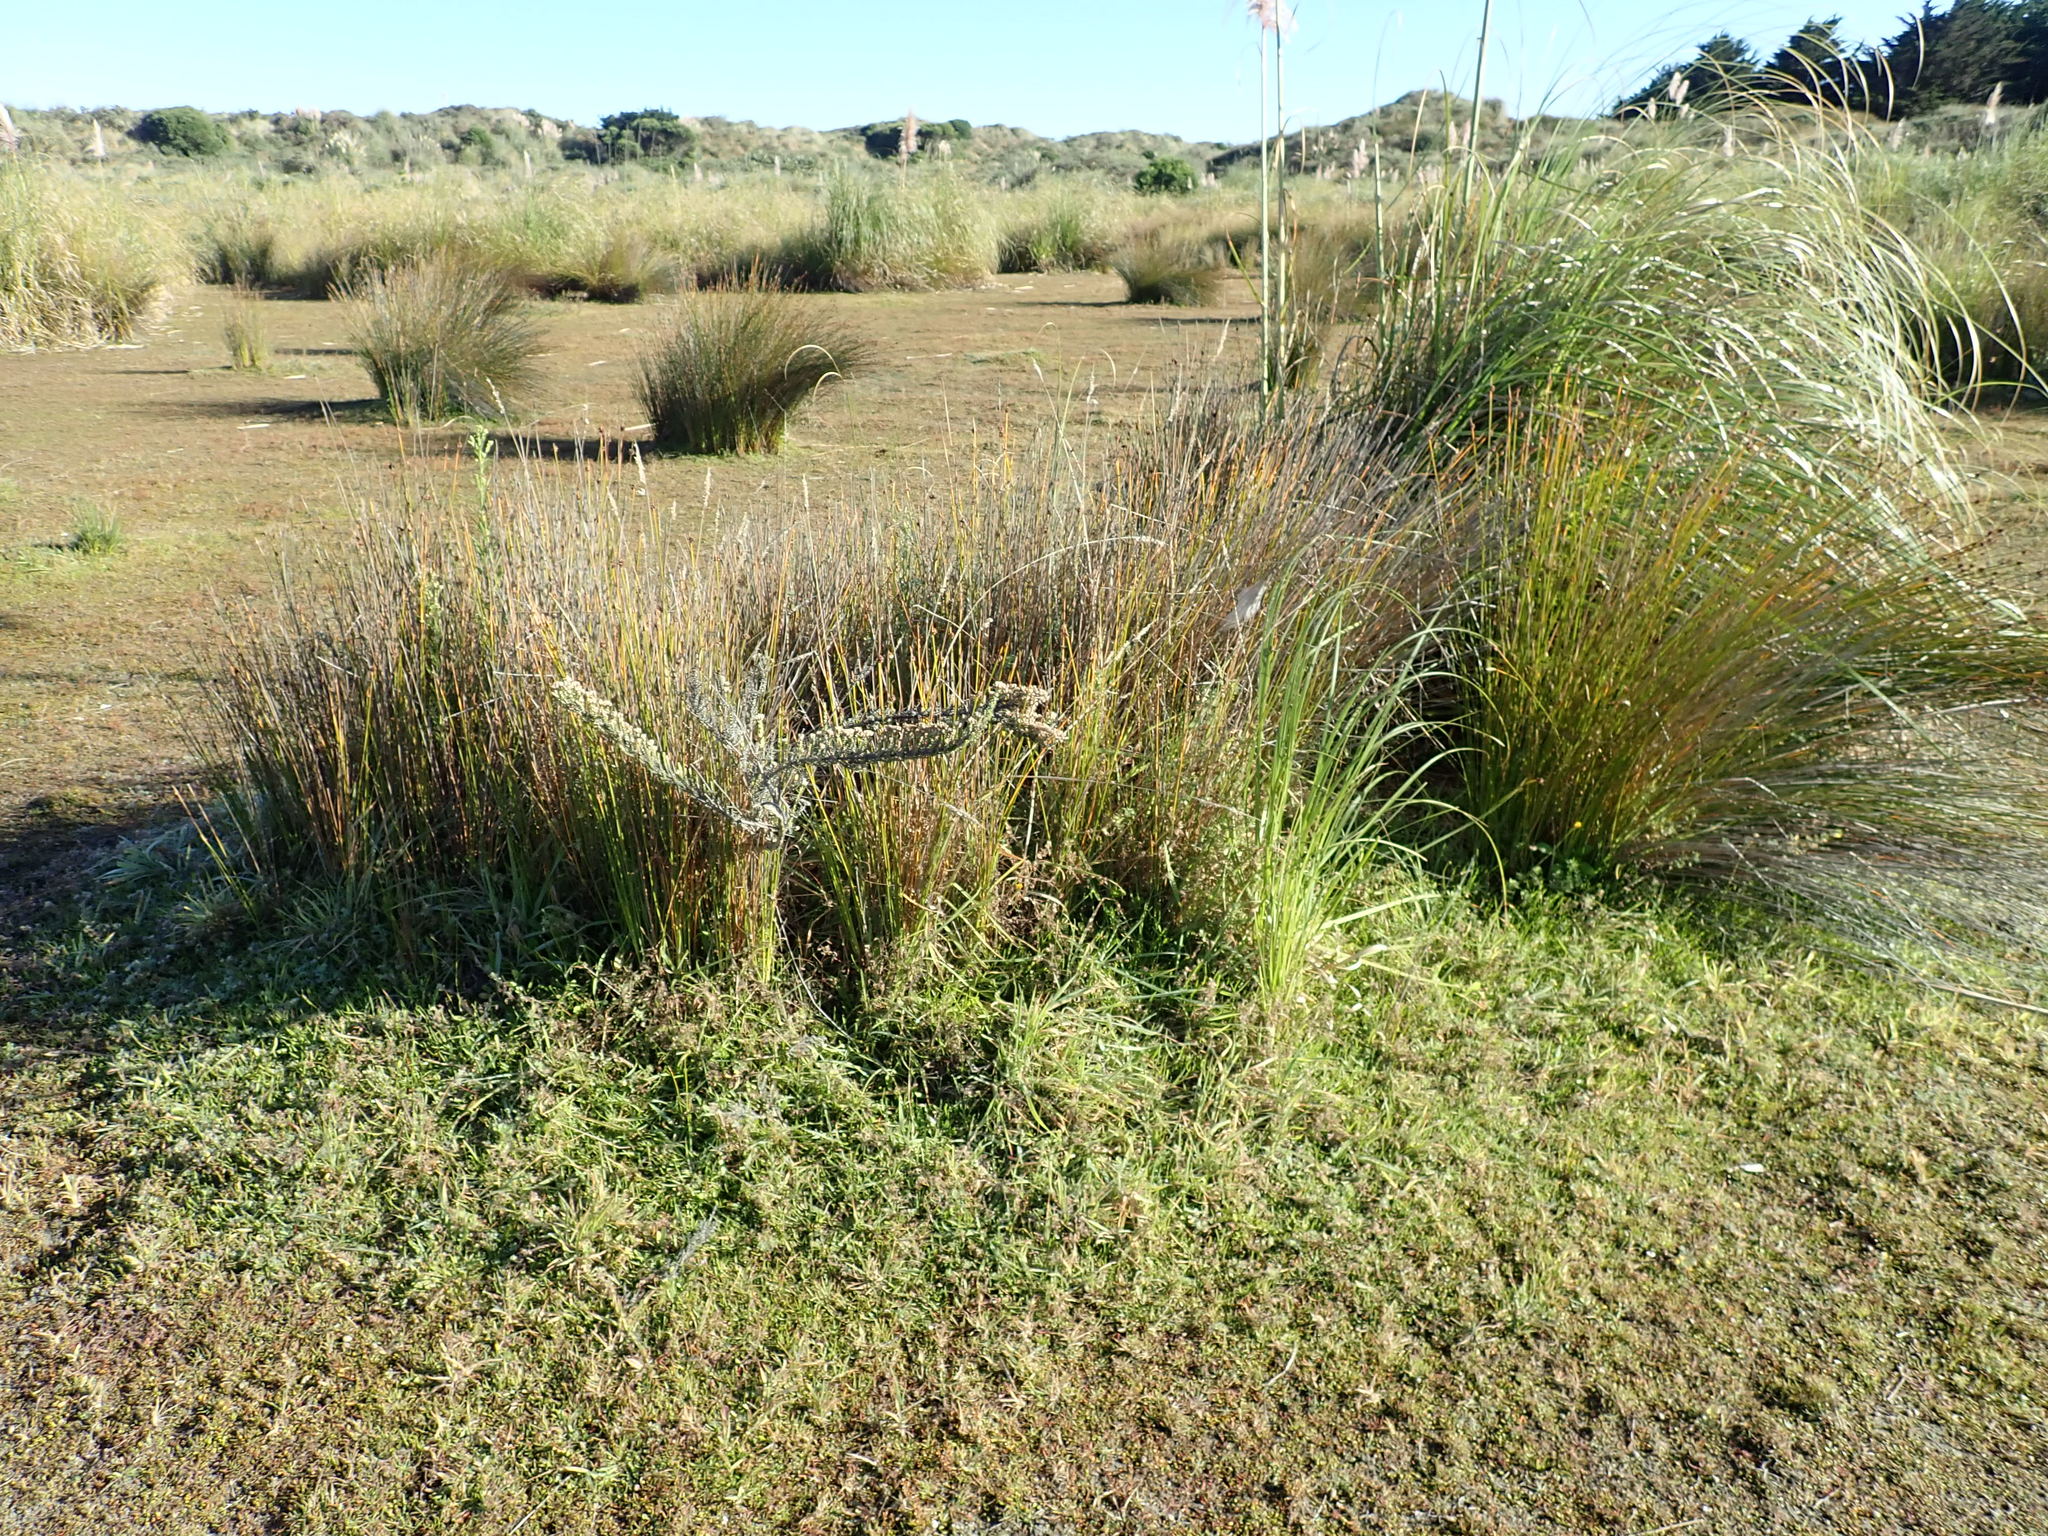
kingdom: Plantae
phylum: Tracheophyta
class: Magnoliopsida
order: Asterales
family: Asteraceae
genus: Ozothamnus
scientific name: Ozothamnus leptophyllus
